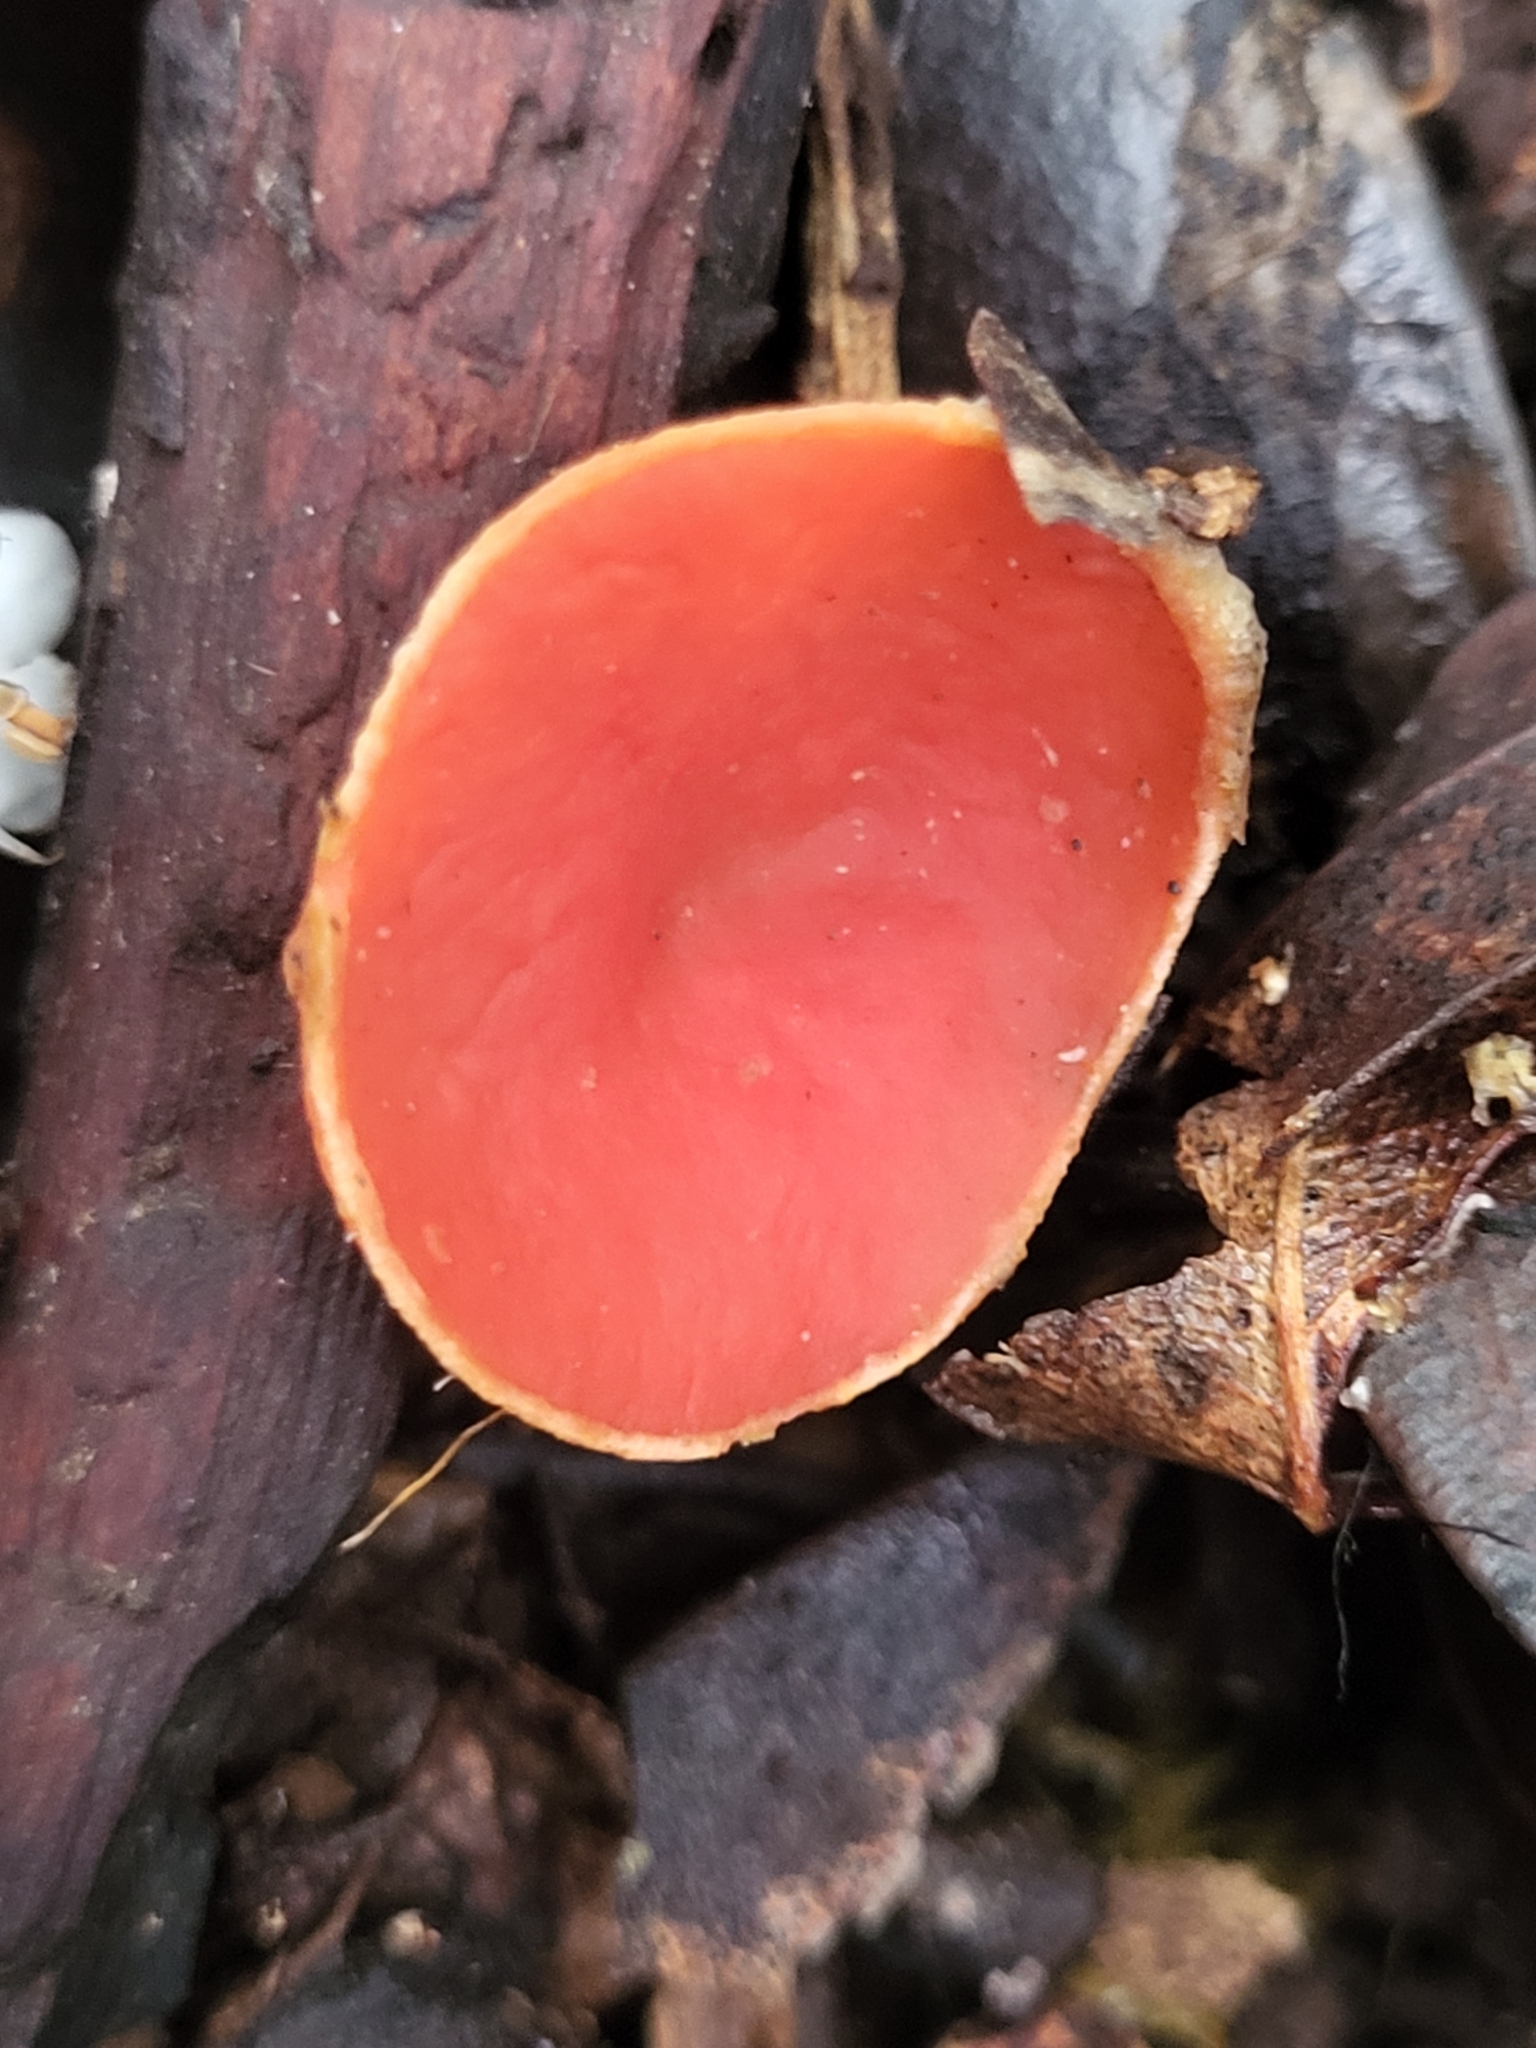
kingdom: Fungi
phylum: Ascomycota
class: Pezizomycetes
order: Pezizales
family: Sarcoscyphaceae
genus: Sarcoscypha
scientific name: Sarcoscypha macaronesica
